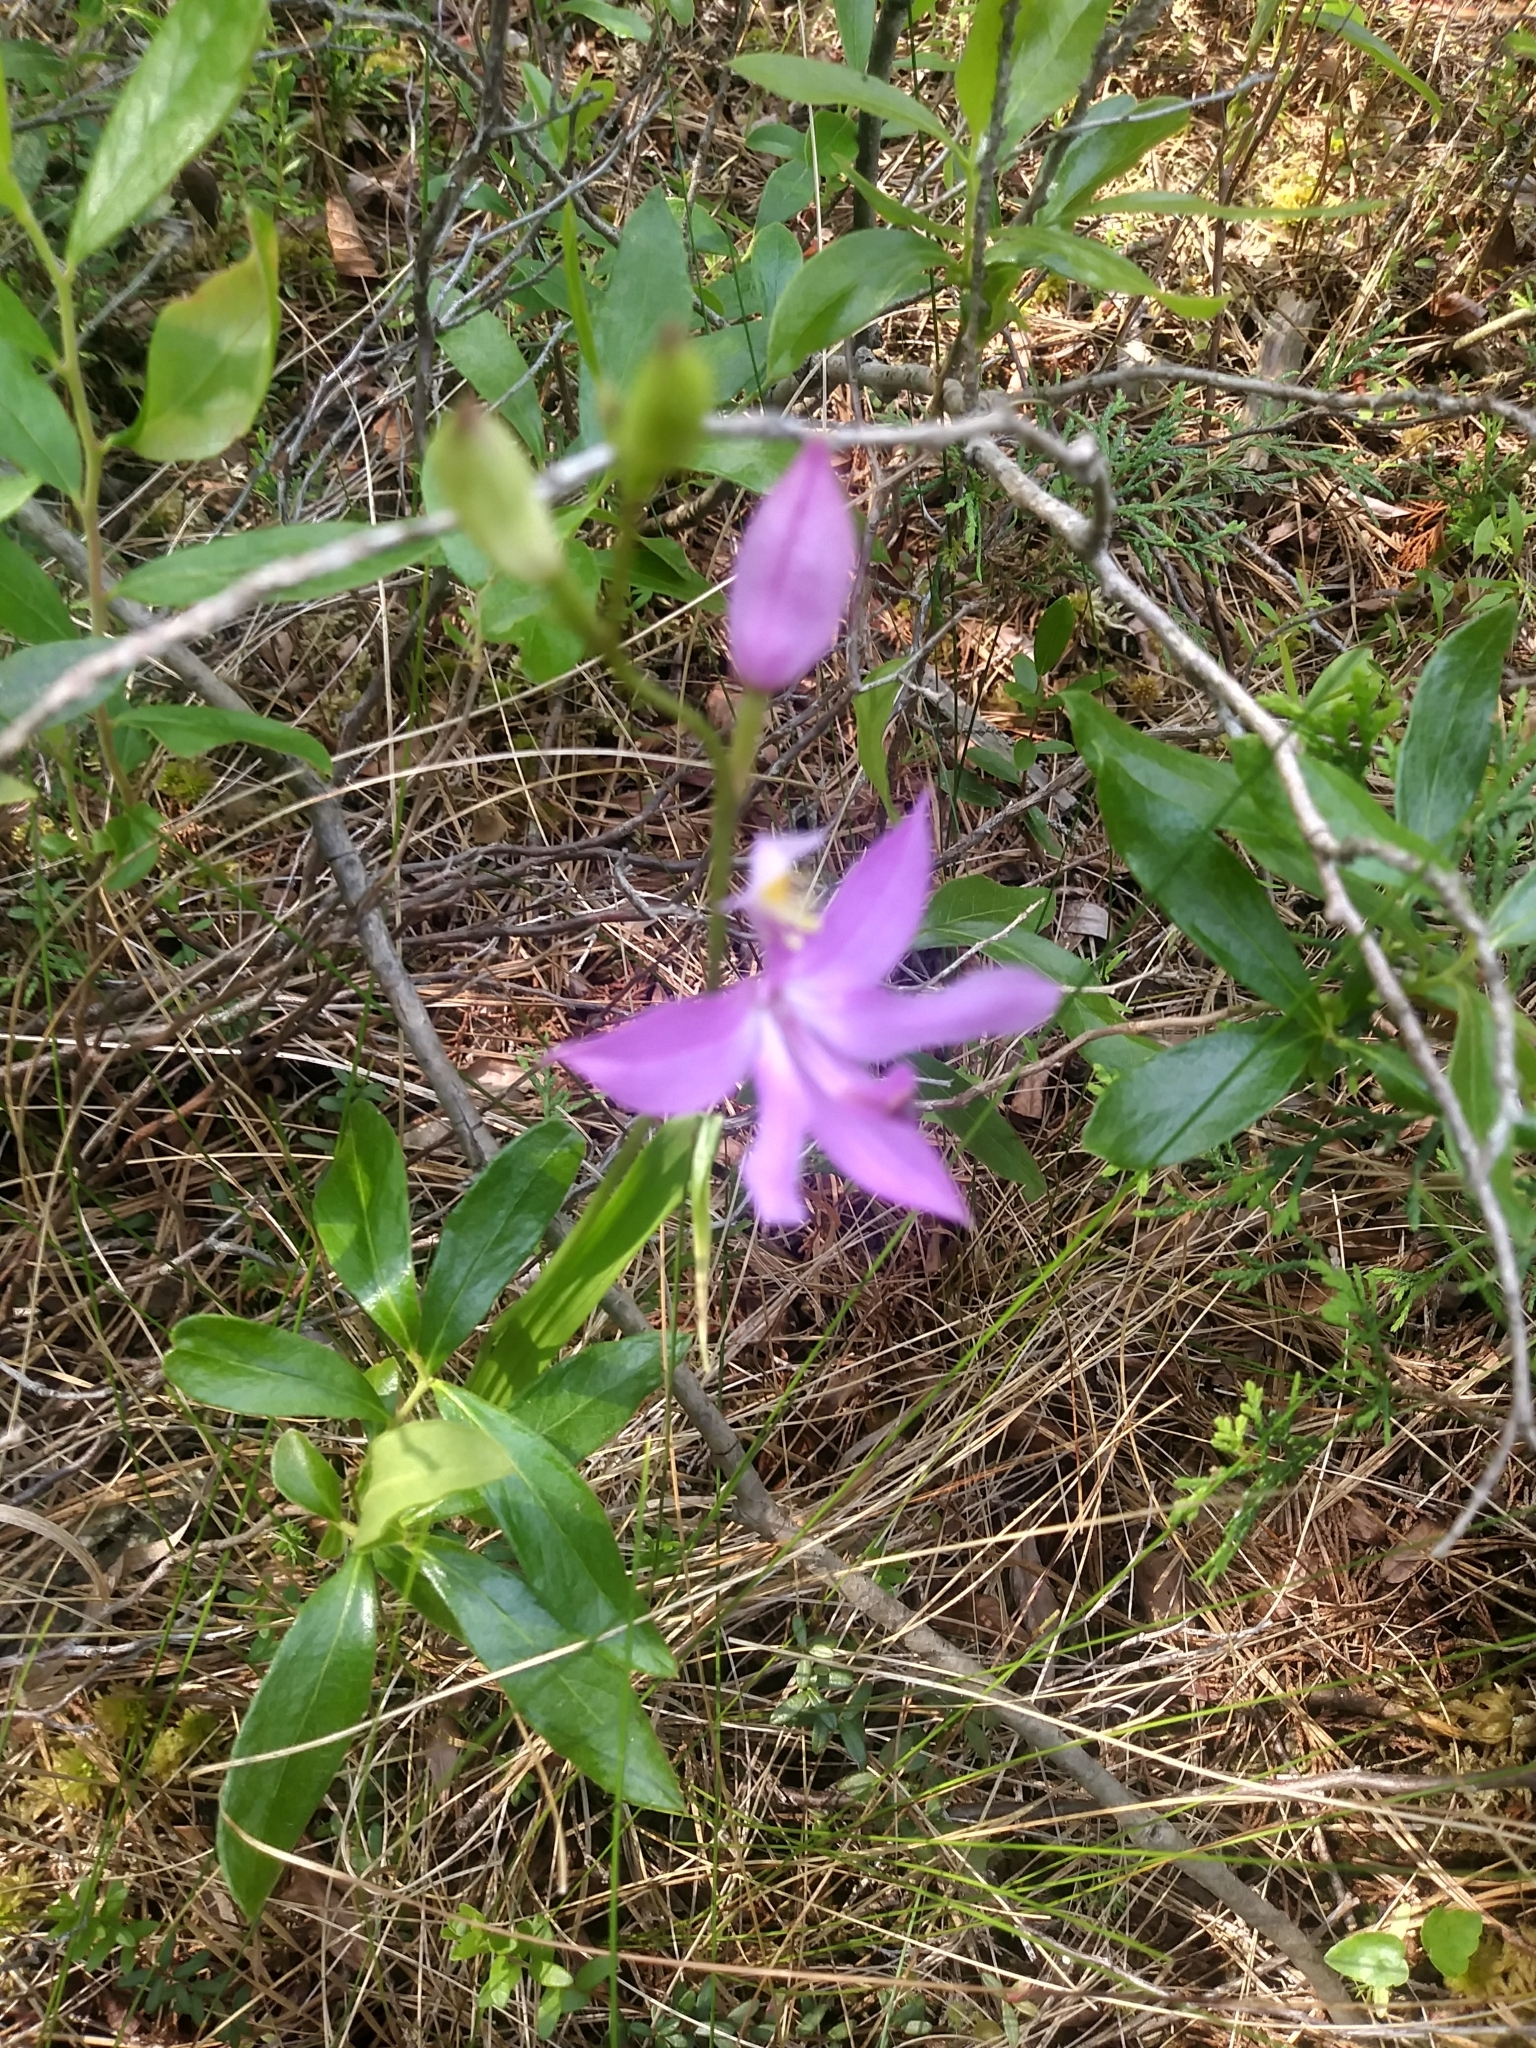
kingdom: Plantae
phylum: Tracheophyta
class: Liliopsida
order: Asparagales
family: Orchidaceae
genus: Calopogon
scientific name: Calopogon tuberosus
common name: Grass-pink
